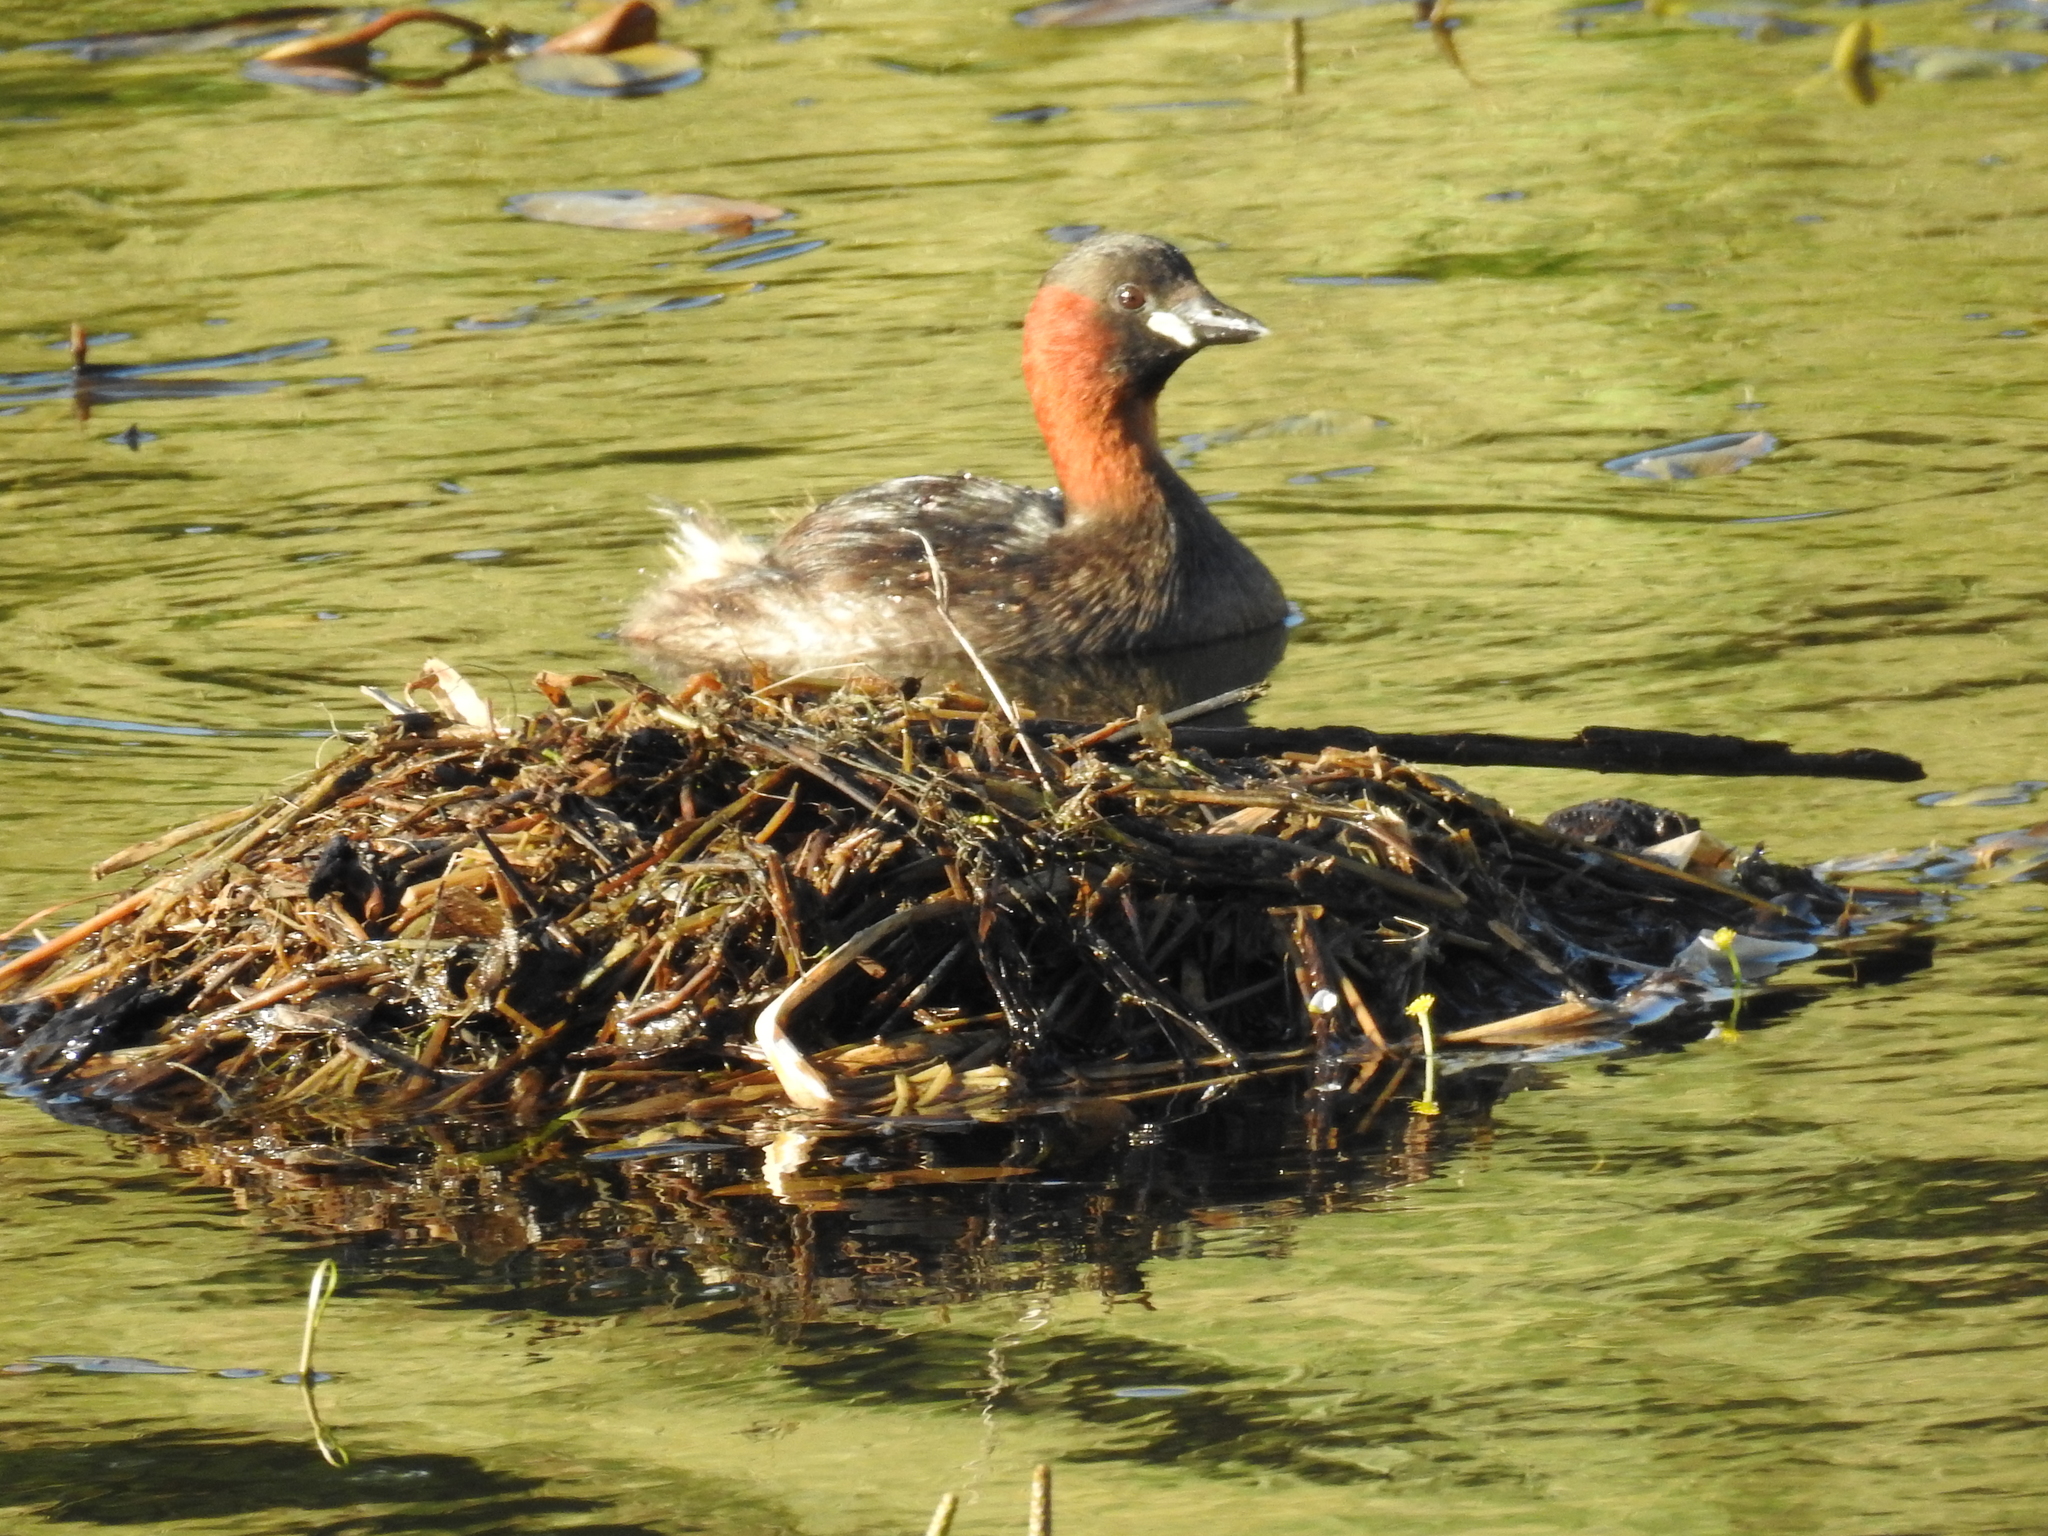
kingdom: Animalia
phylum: Chordata
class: Aves
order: Podicipediformes
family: Podicipedidae
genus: Tachybaptus
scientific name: Tachybaptus ruficollis
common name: Little grebe
